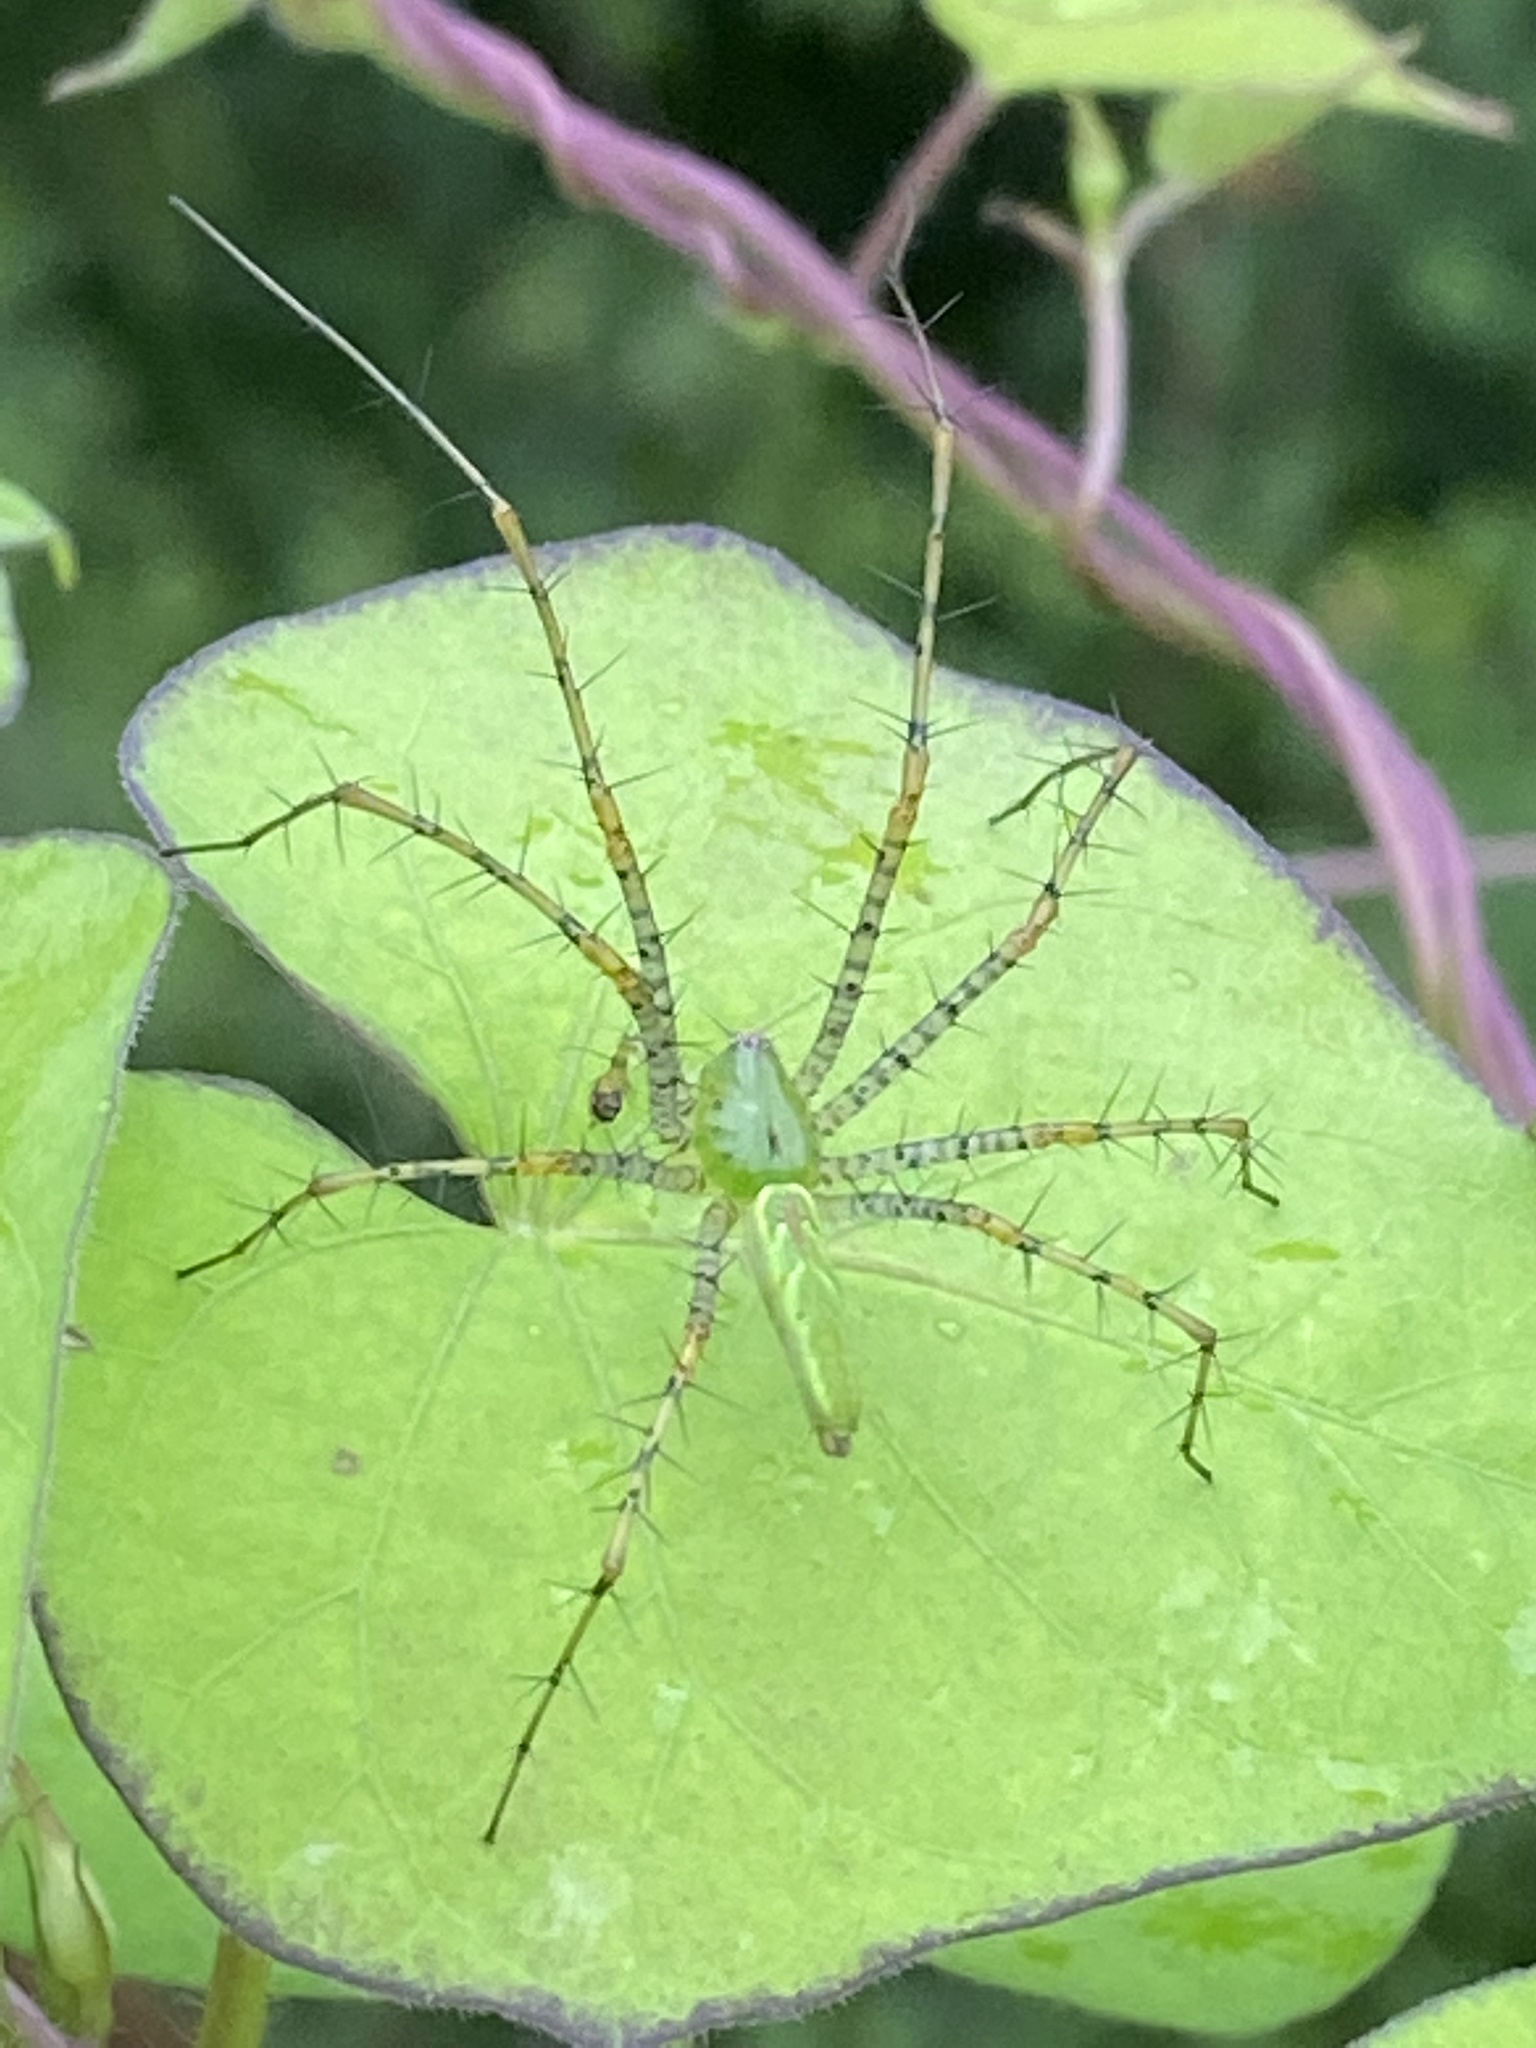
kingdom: Animalia
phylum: Arthropoda
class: Arachnida
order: Araneae
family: Oxyopidae
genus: Peucetia
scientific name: Peucetia viridans
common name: Lynx spiders
